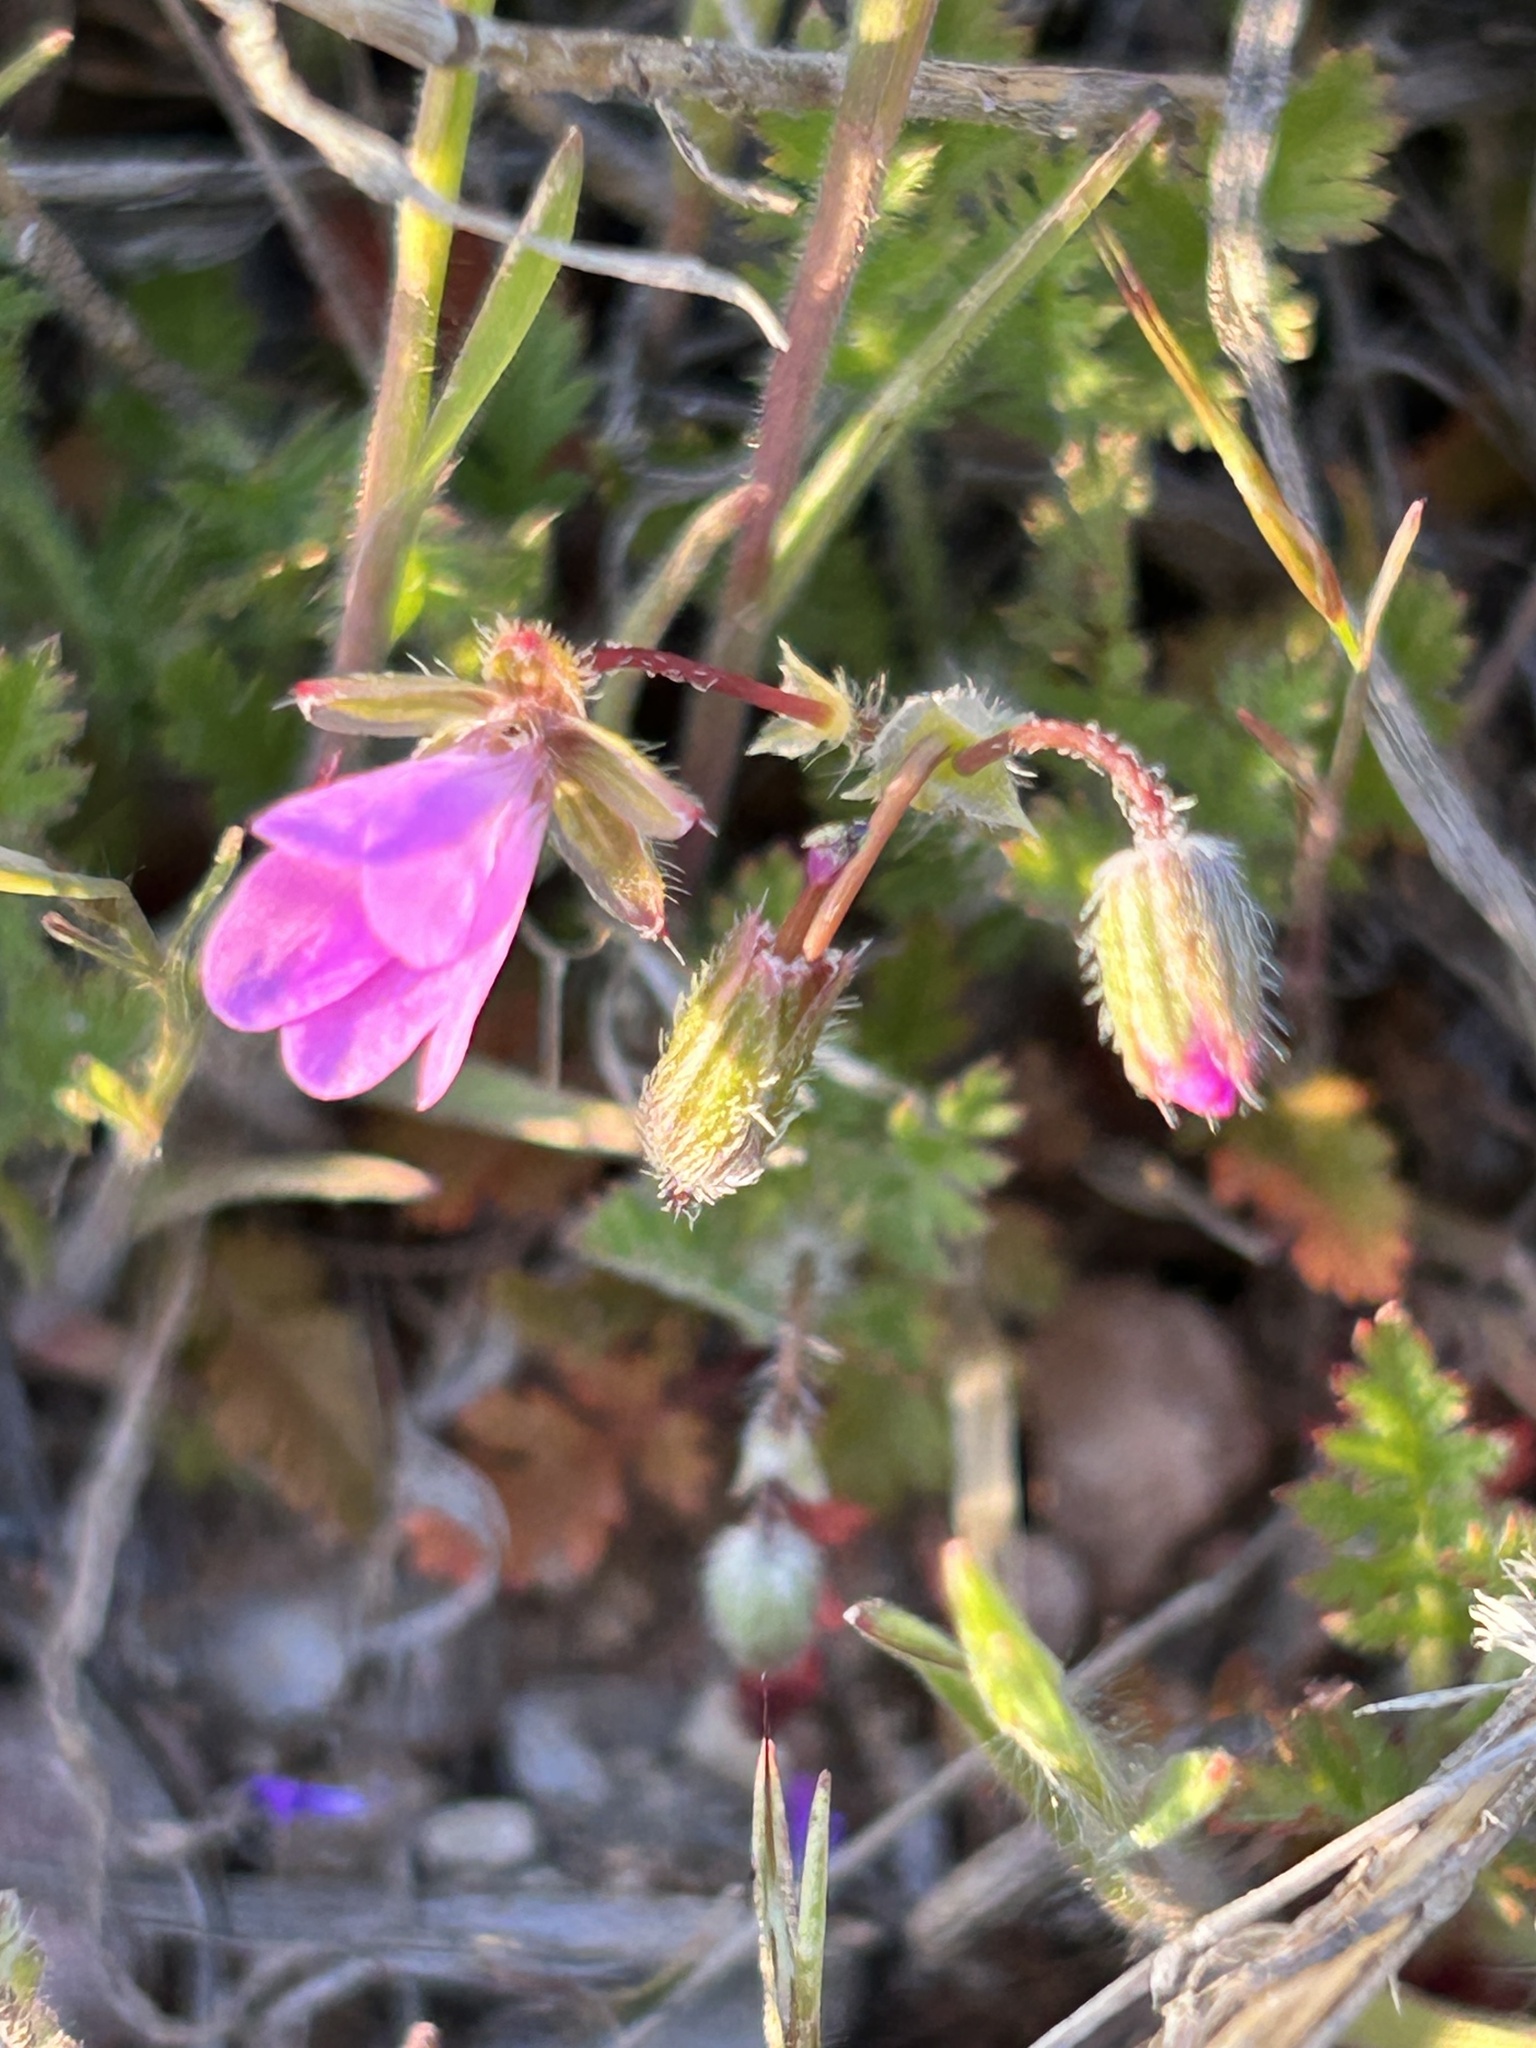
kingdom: Plantae
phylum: Tracheophyta
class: Magnoliopsida
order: Geraniales
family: Geraniaceae
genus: Erodium
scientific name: Erodium cicutarium
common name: Common stork's-bill
